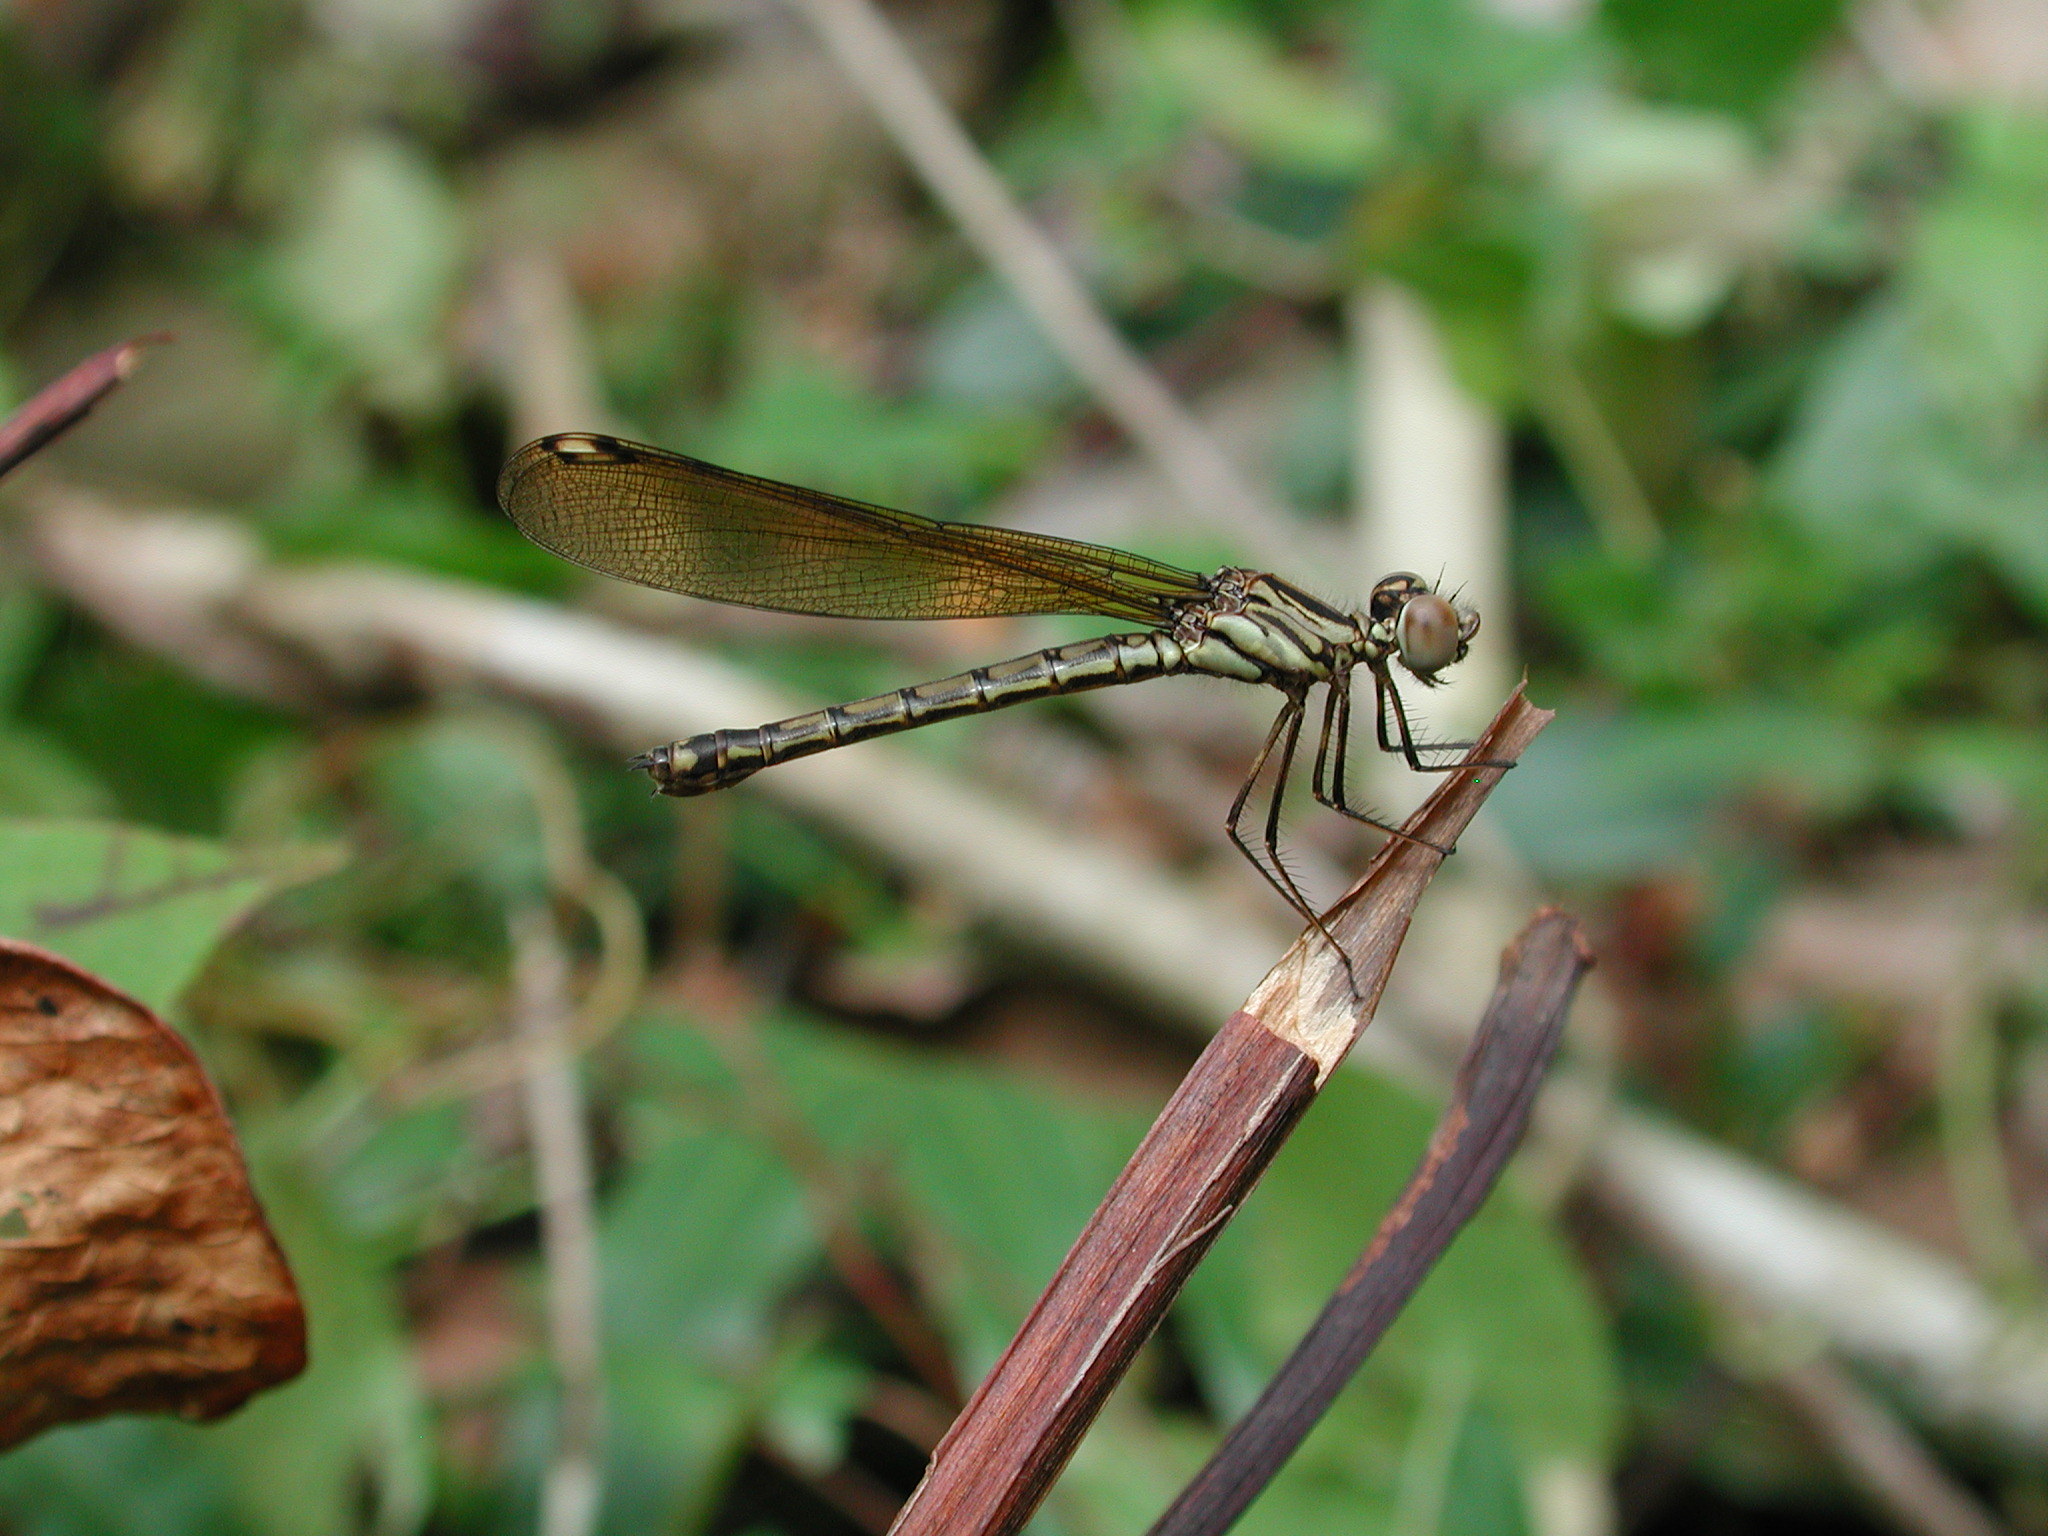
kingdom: Animalia
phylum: Arthropoda
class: Insecta
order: Odonata
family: Chlorocyphidae
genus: Platycypha
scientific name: Platycypha caligata
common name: Dancing jewel
